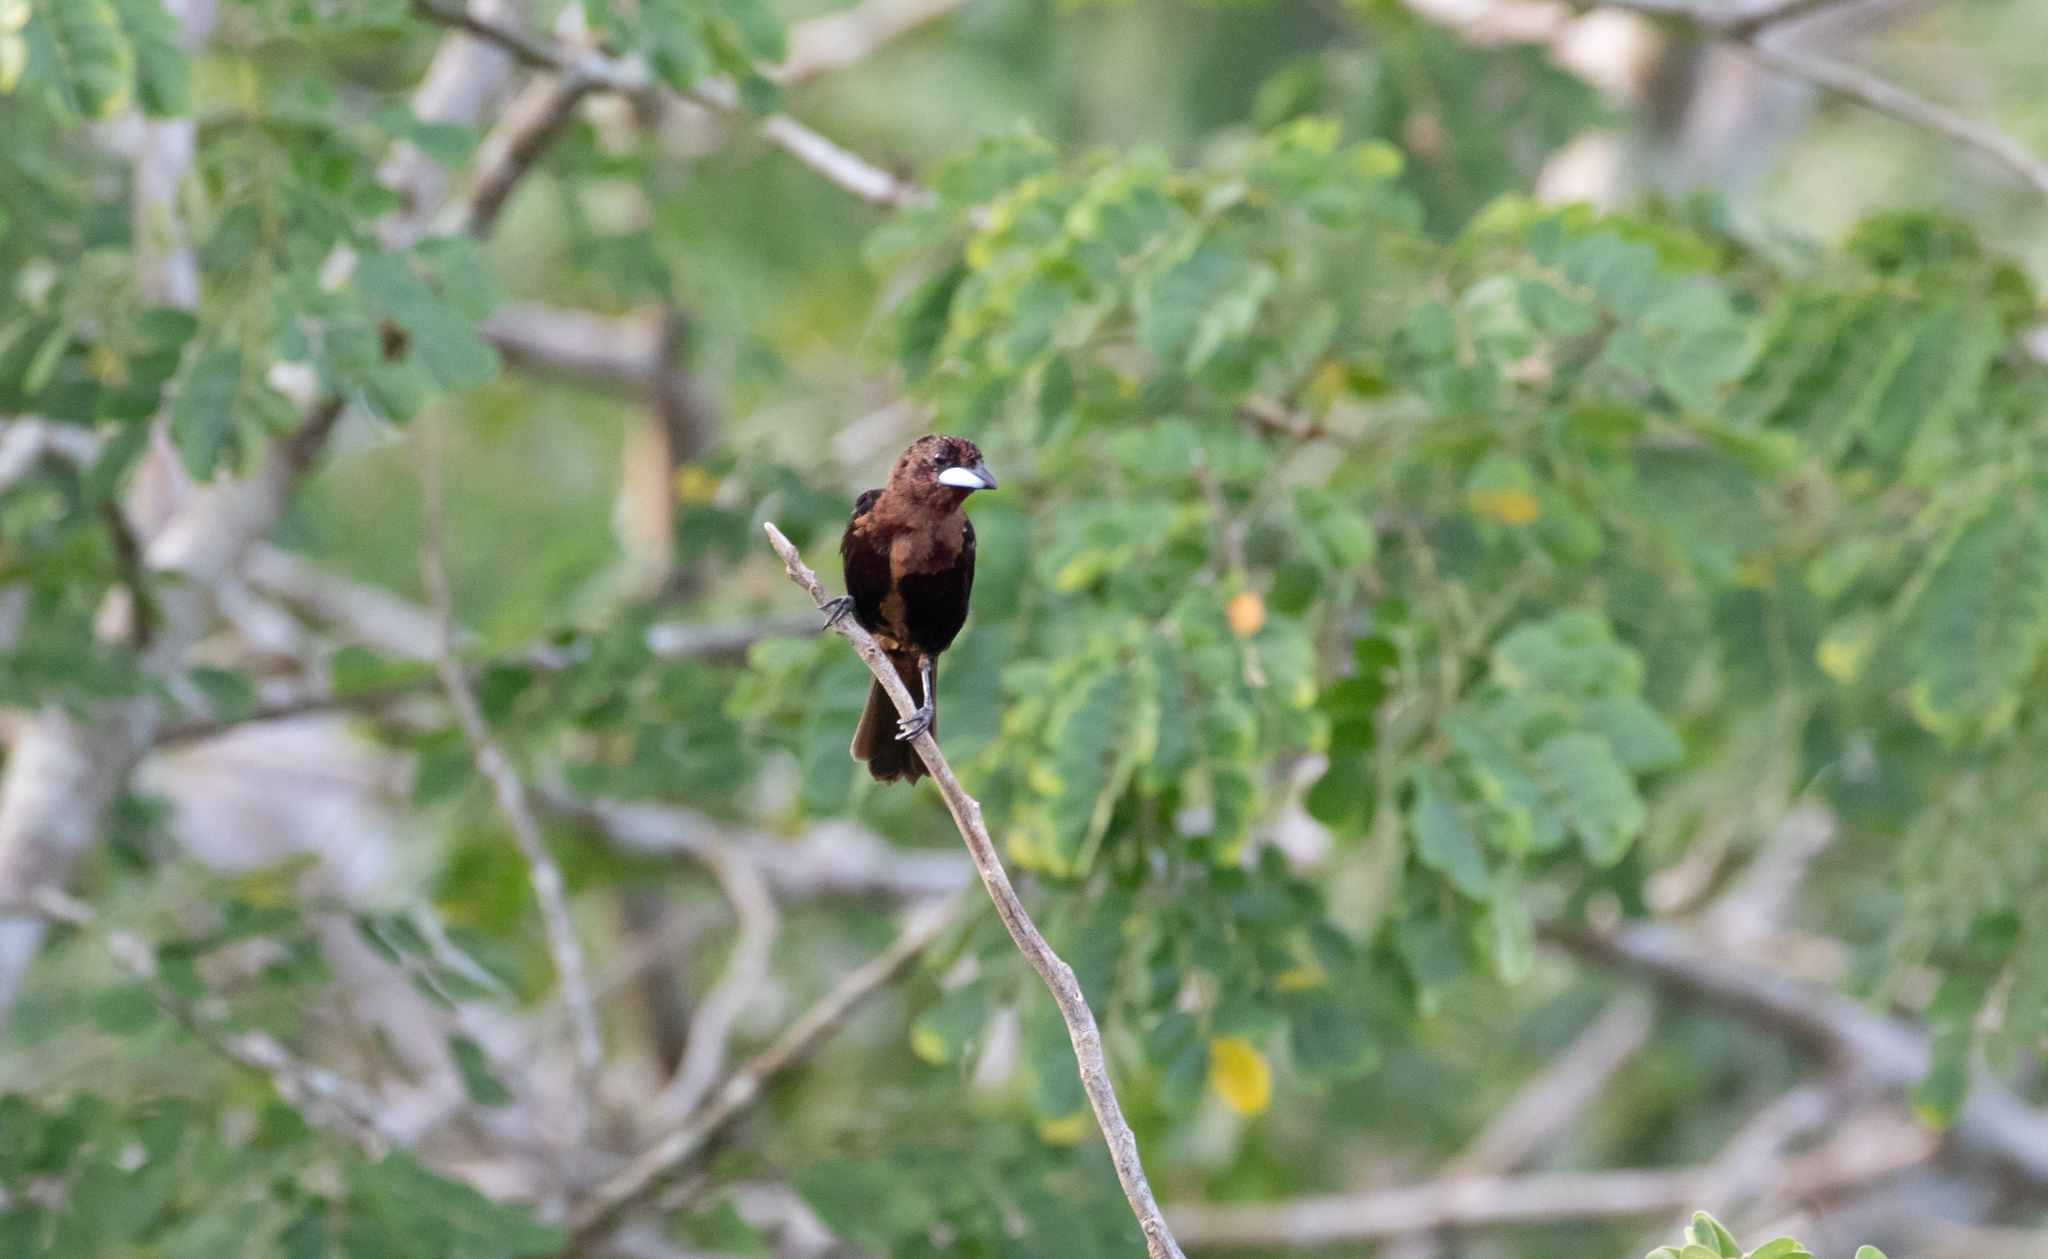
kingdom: Animalia
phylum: Chordata
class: Aves
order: Passeriformes
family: Thraupidae
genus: Ramphocelus
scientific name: Ramphocelus carbo
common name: Silver-beaked tanager
